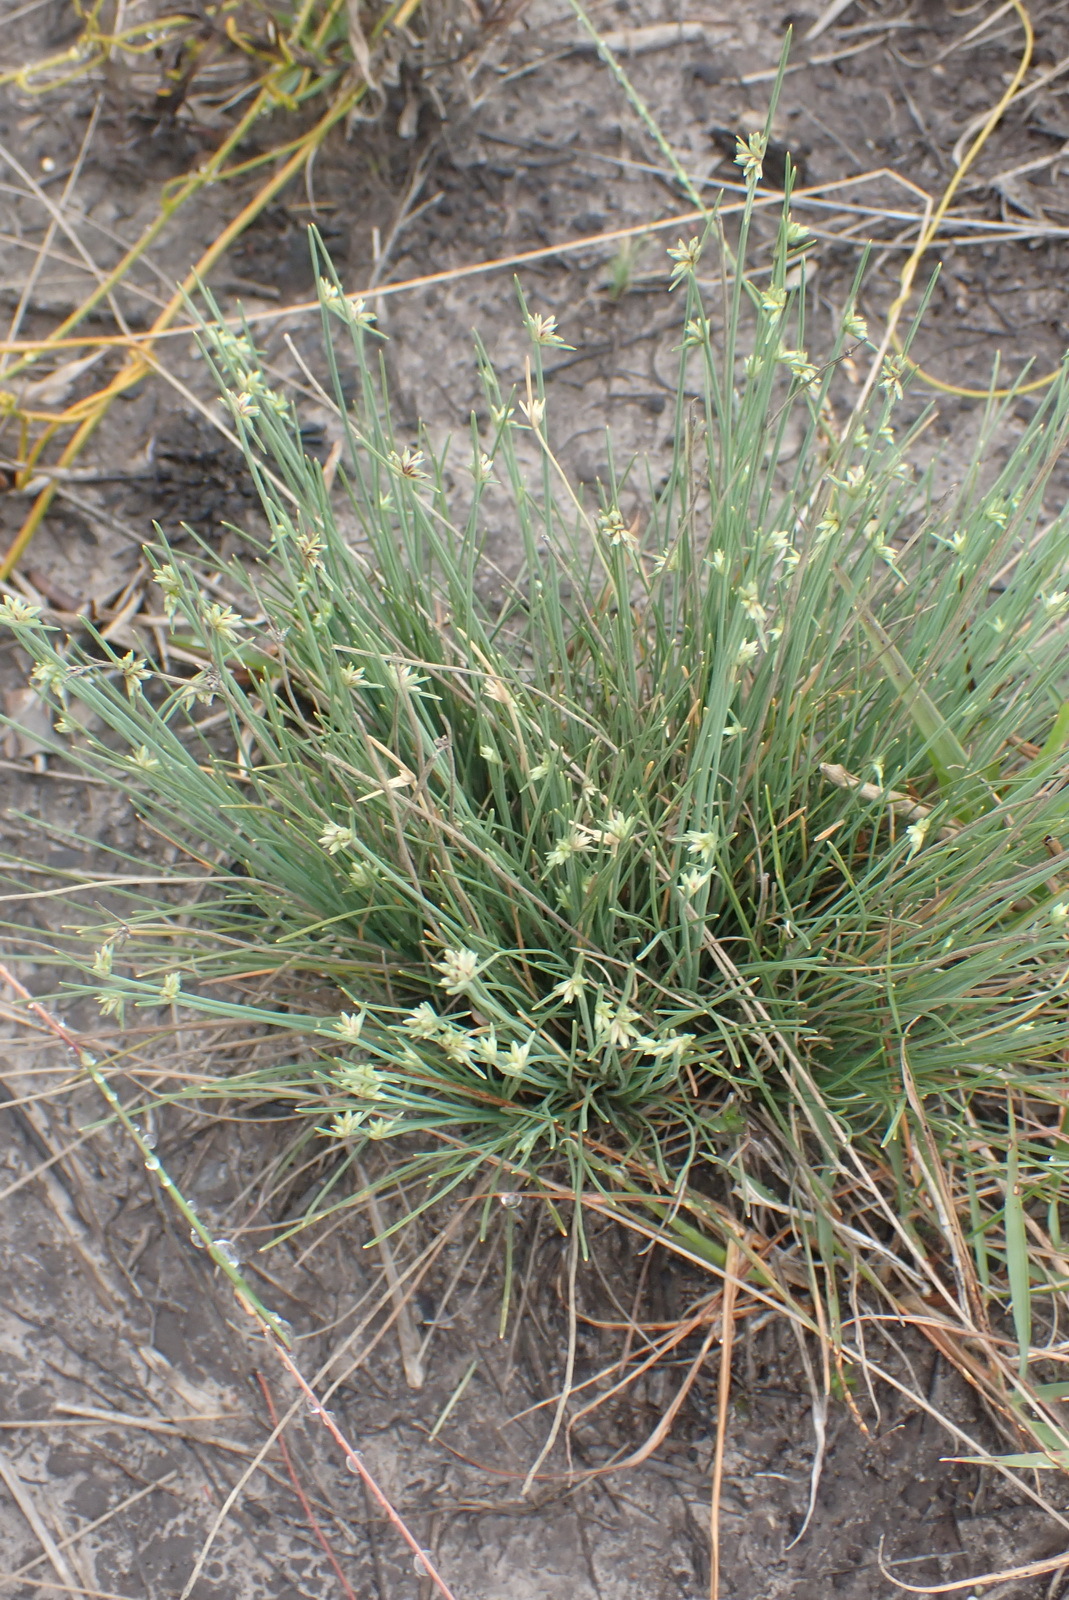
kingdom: Plantae
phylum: Tracheophyta
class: Liliopsida
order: Poales
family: Cyperaceae
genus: Ficinia
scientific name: Ficinia albicans
